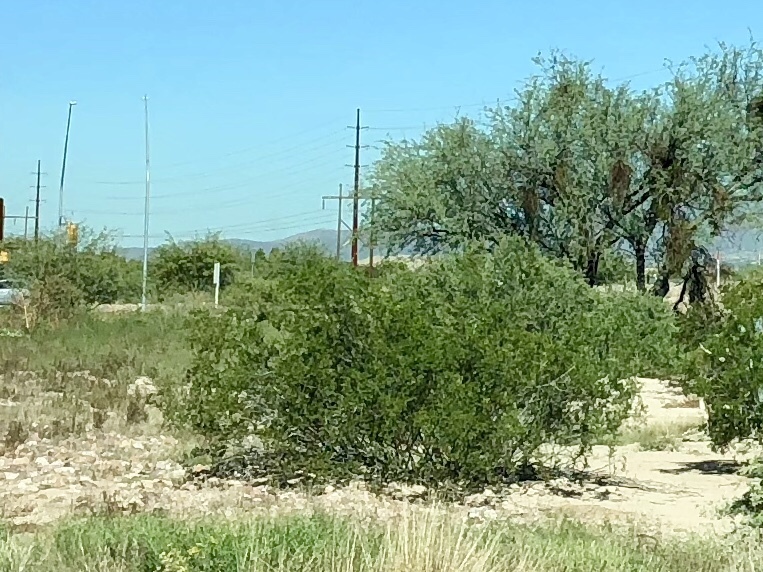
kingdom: Plantae
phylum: Tracheophyta
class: Magnoliopsida
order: Zygophyllales
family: Zygophyllaceae
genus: Larrea
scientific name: Larrea tridentata
